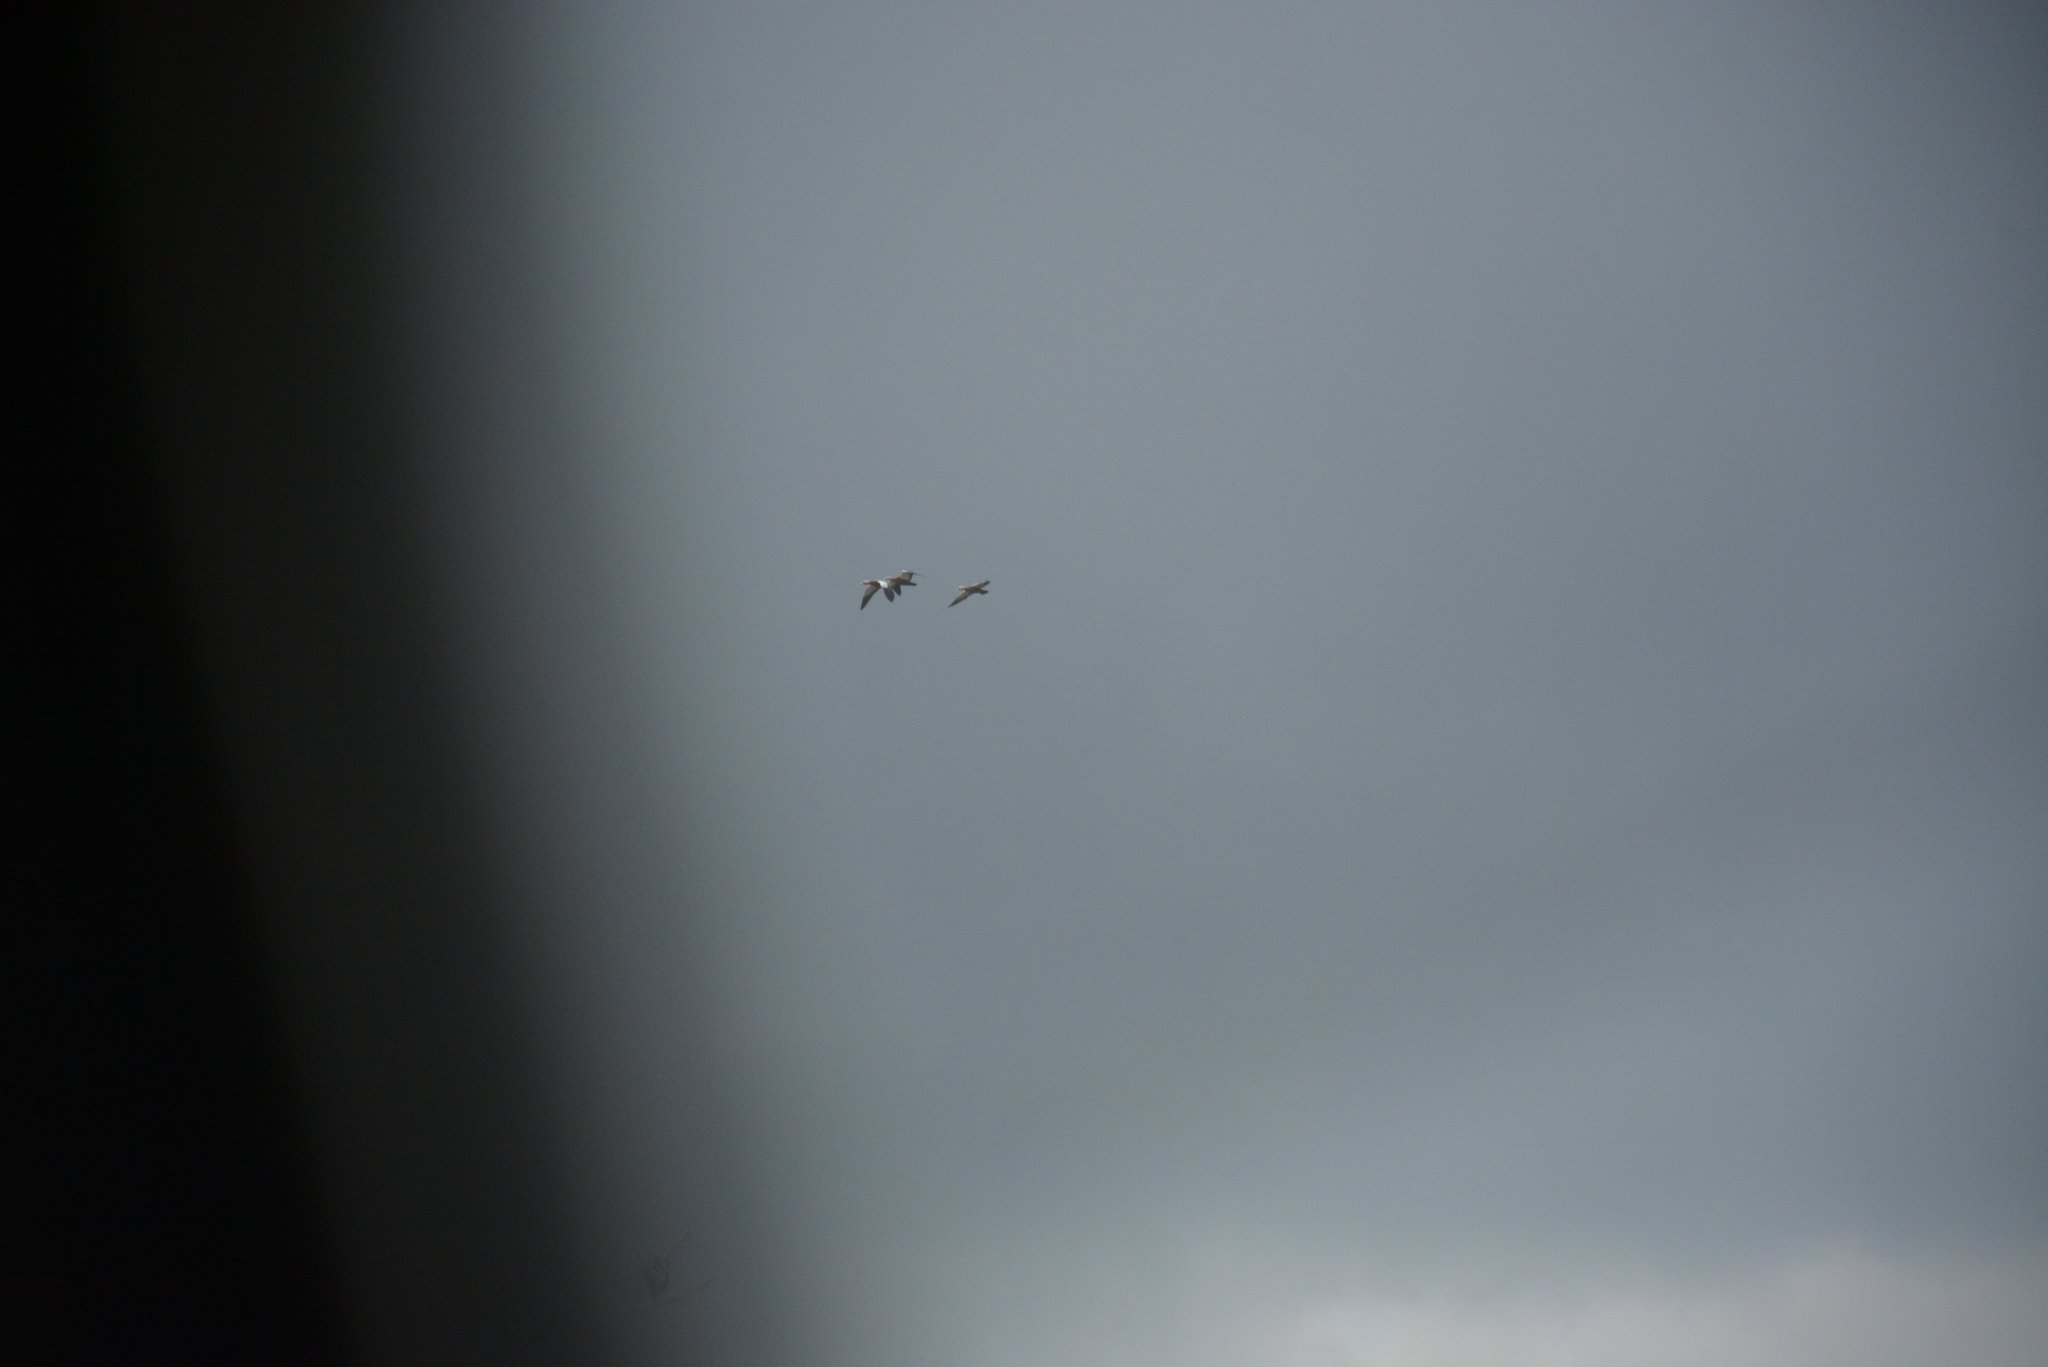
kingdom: Animalia
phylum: Chordata
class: Aves
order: Anseriformes
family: Anatidae
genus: Tadorna
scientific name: Tadorna ferruginea
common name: Ruddy shelduck
